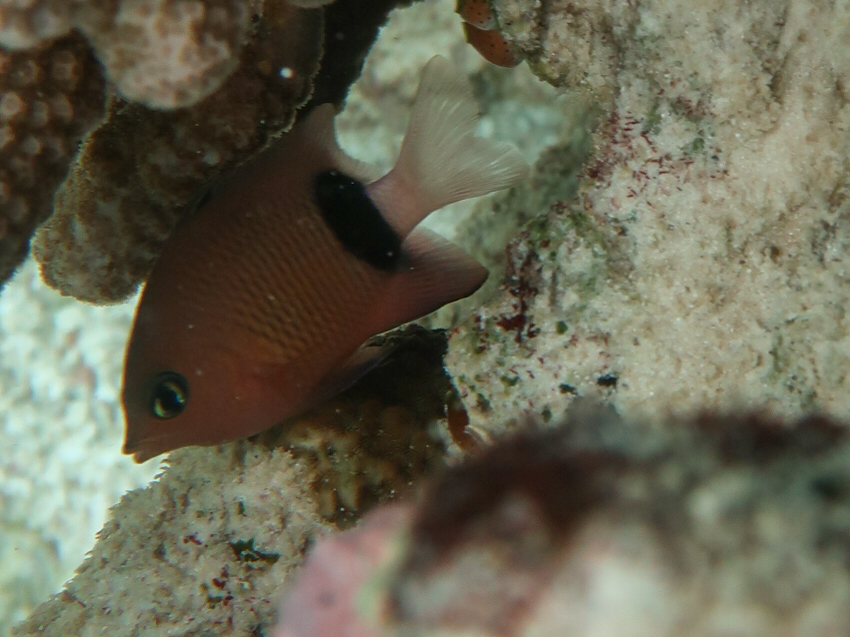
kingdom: Animalia
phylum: Chordata
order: Perciformes
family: Pomacentridae
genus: Plectroglyphidodon
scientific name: Plectroglyphidodon dickii
